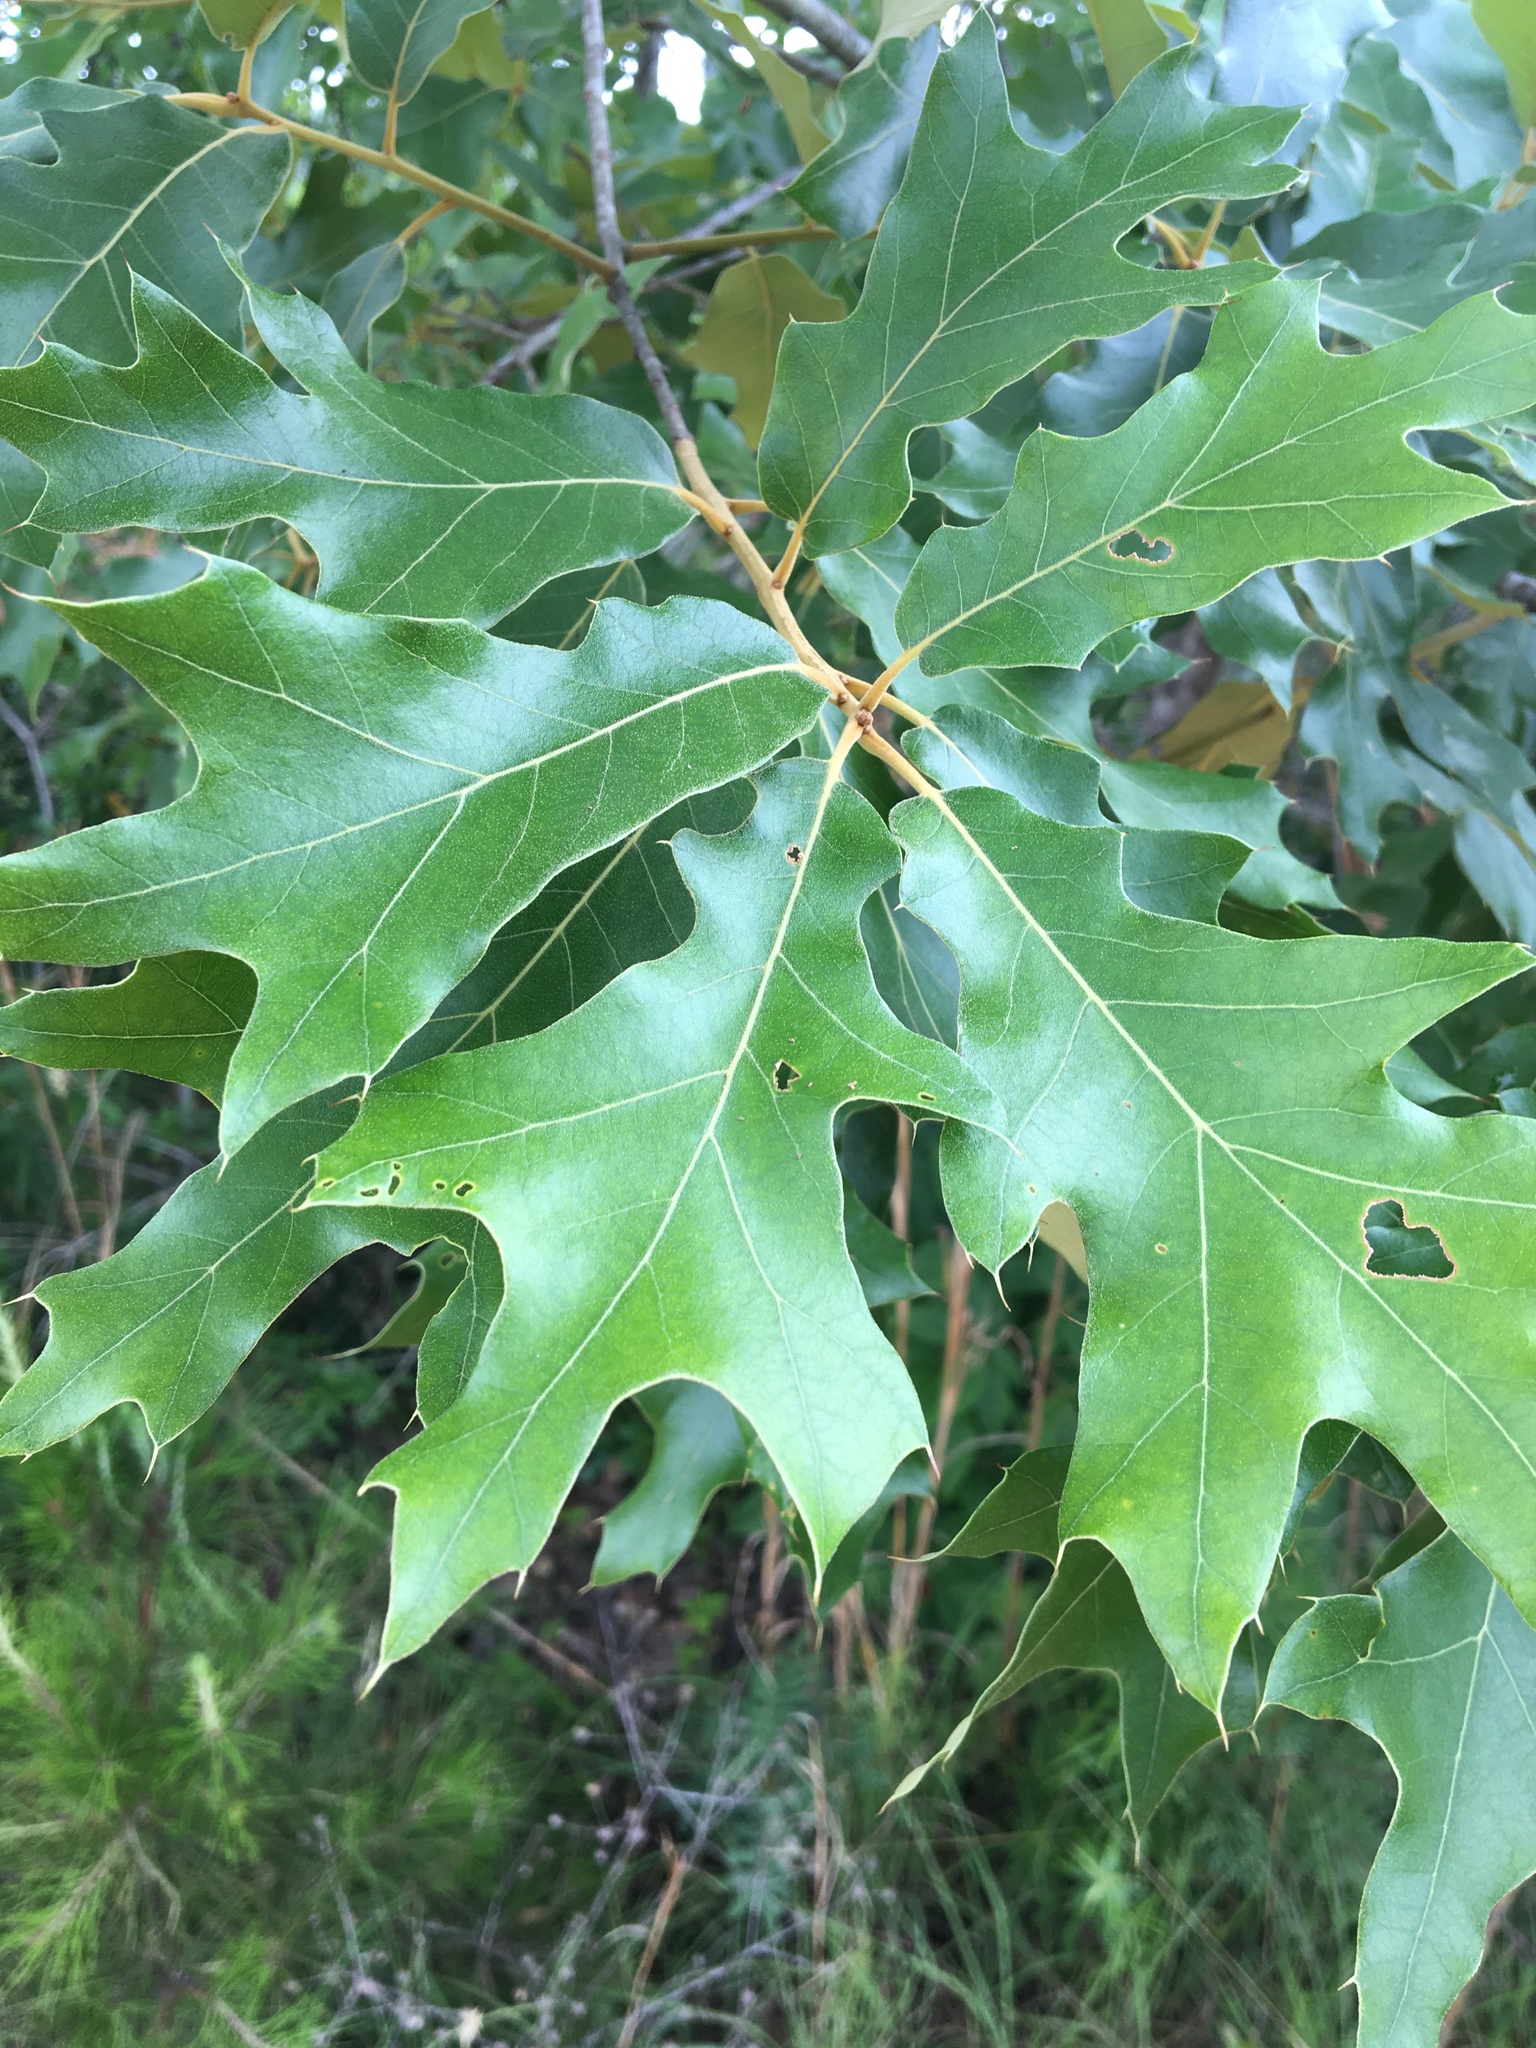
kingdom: Plantae
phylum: Tracheophyta
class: Magnoliopsida
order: Fagales
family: Fagaceae
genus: Quercus
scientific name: Quercus falcata
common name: Southern red oak
